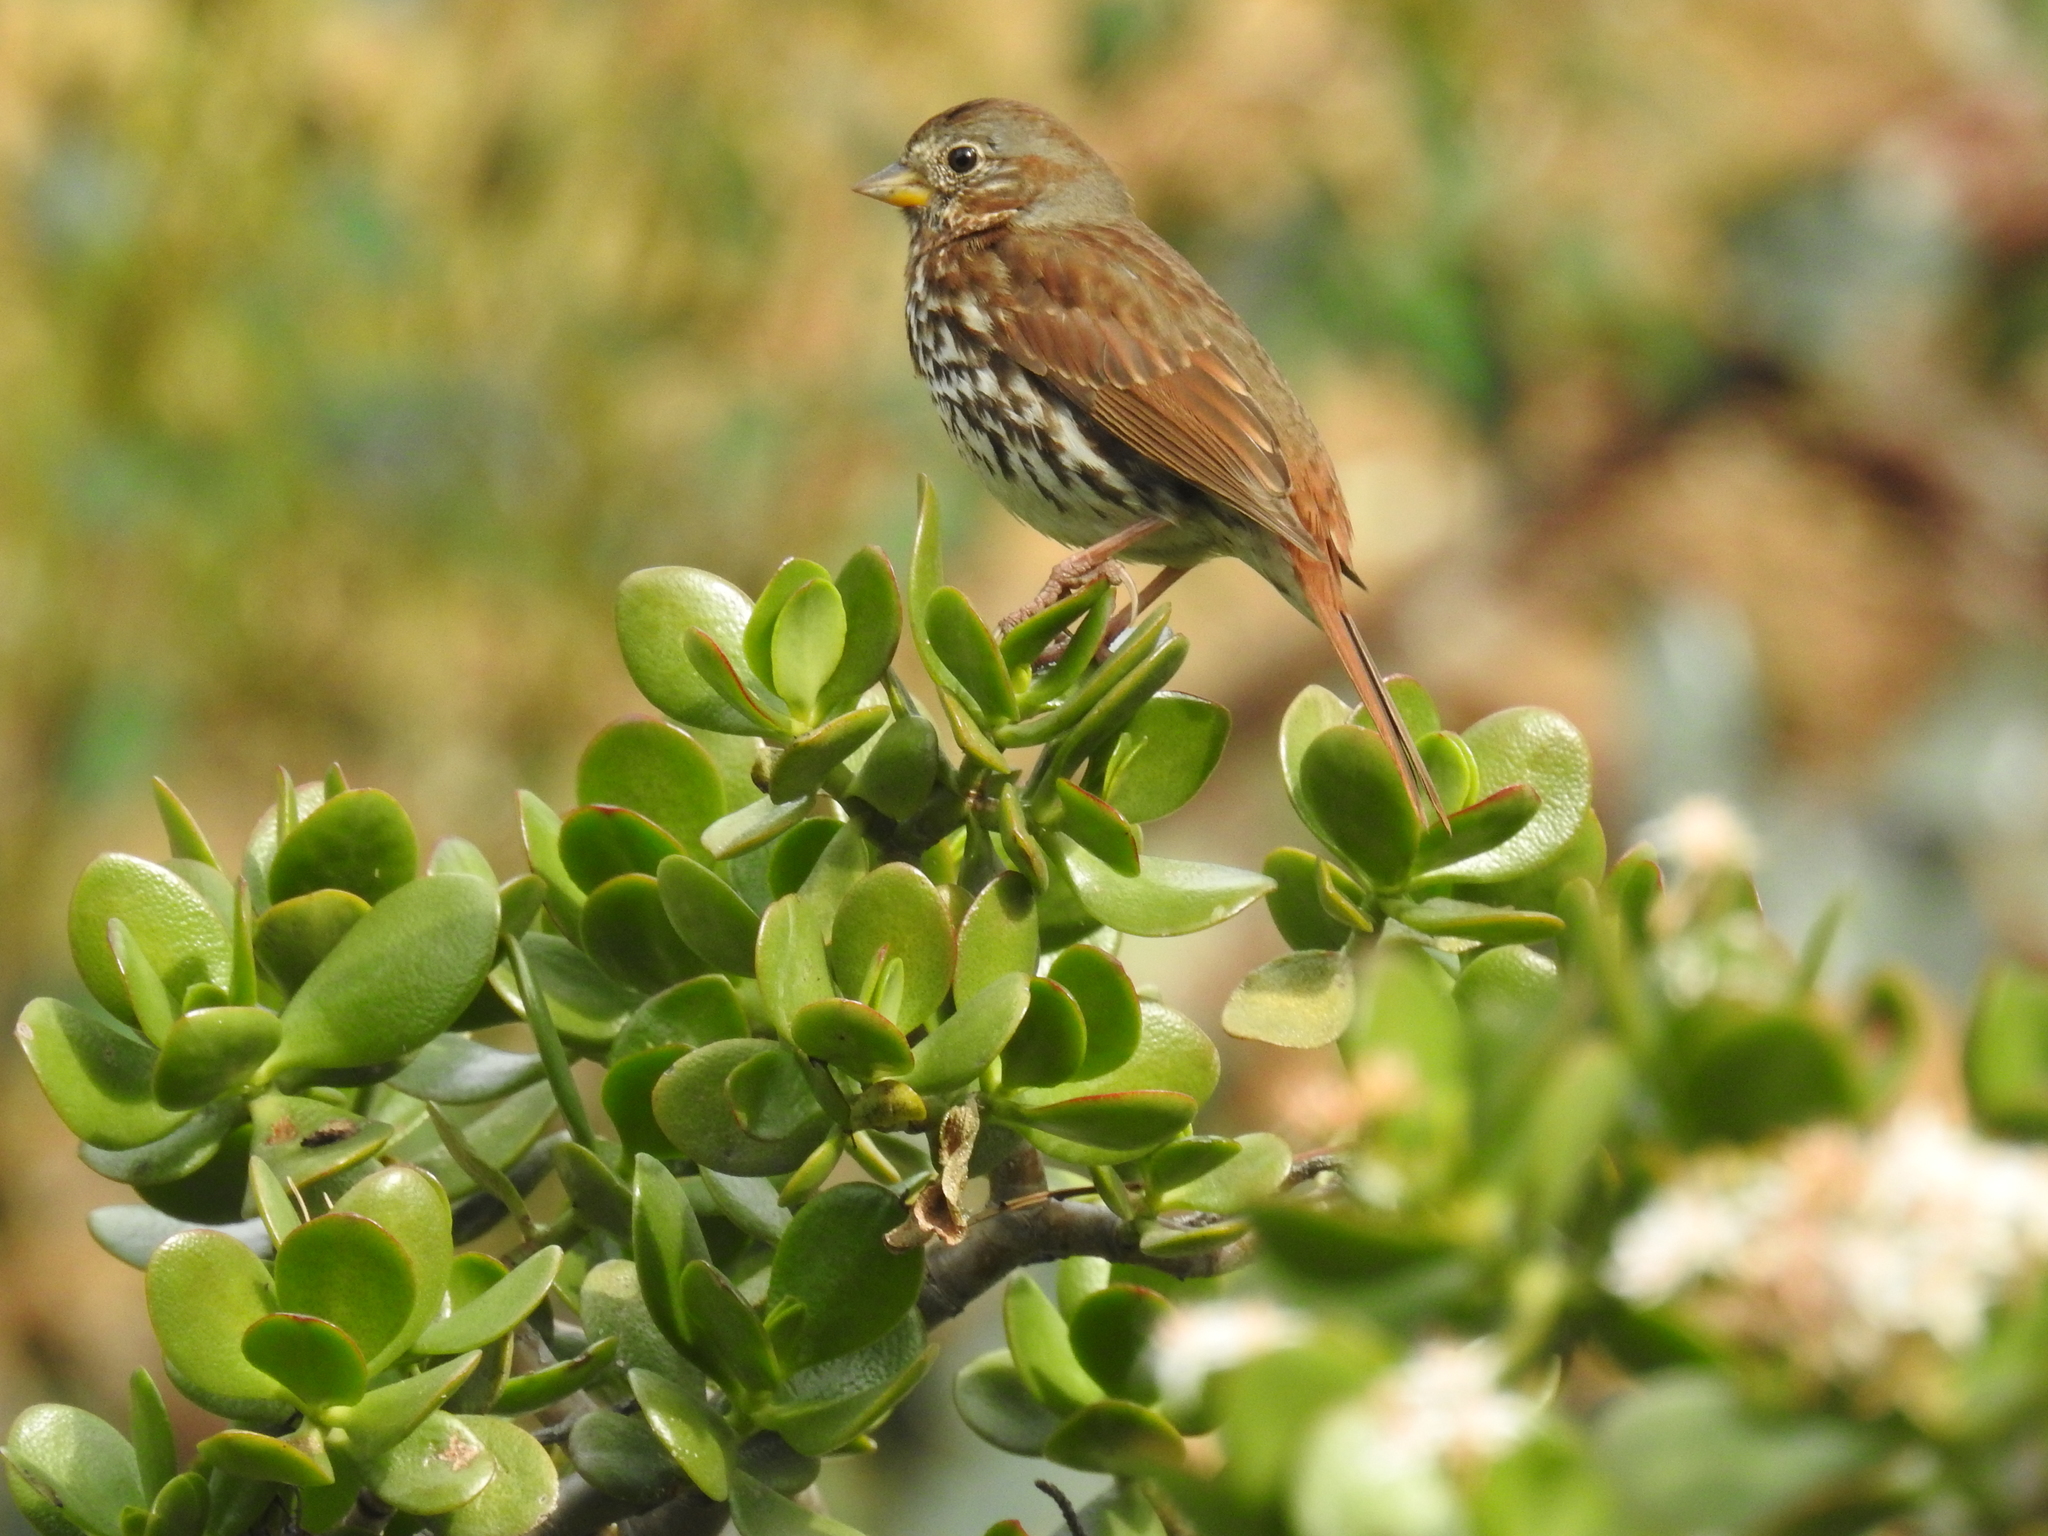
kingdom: Animalia
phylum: Chordata
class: Aves
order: Passeriformes
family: Passerellidae
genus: Passerella
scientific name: Passerella iliaca
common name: Fox sparrow
